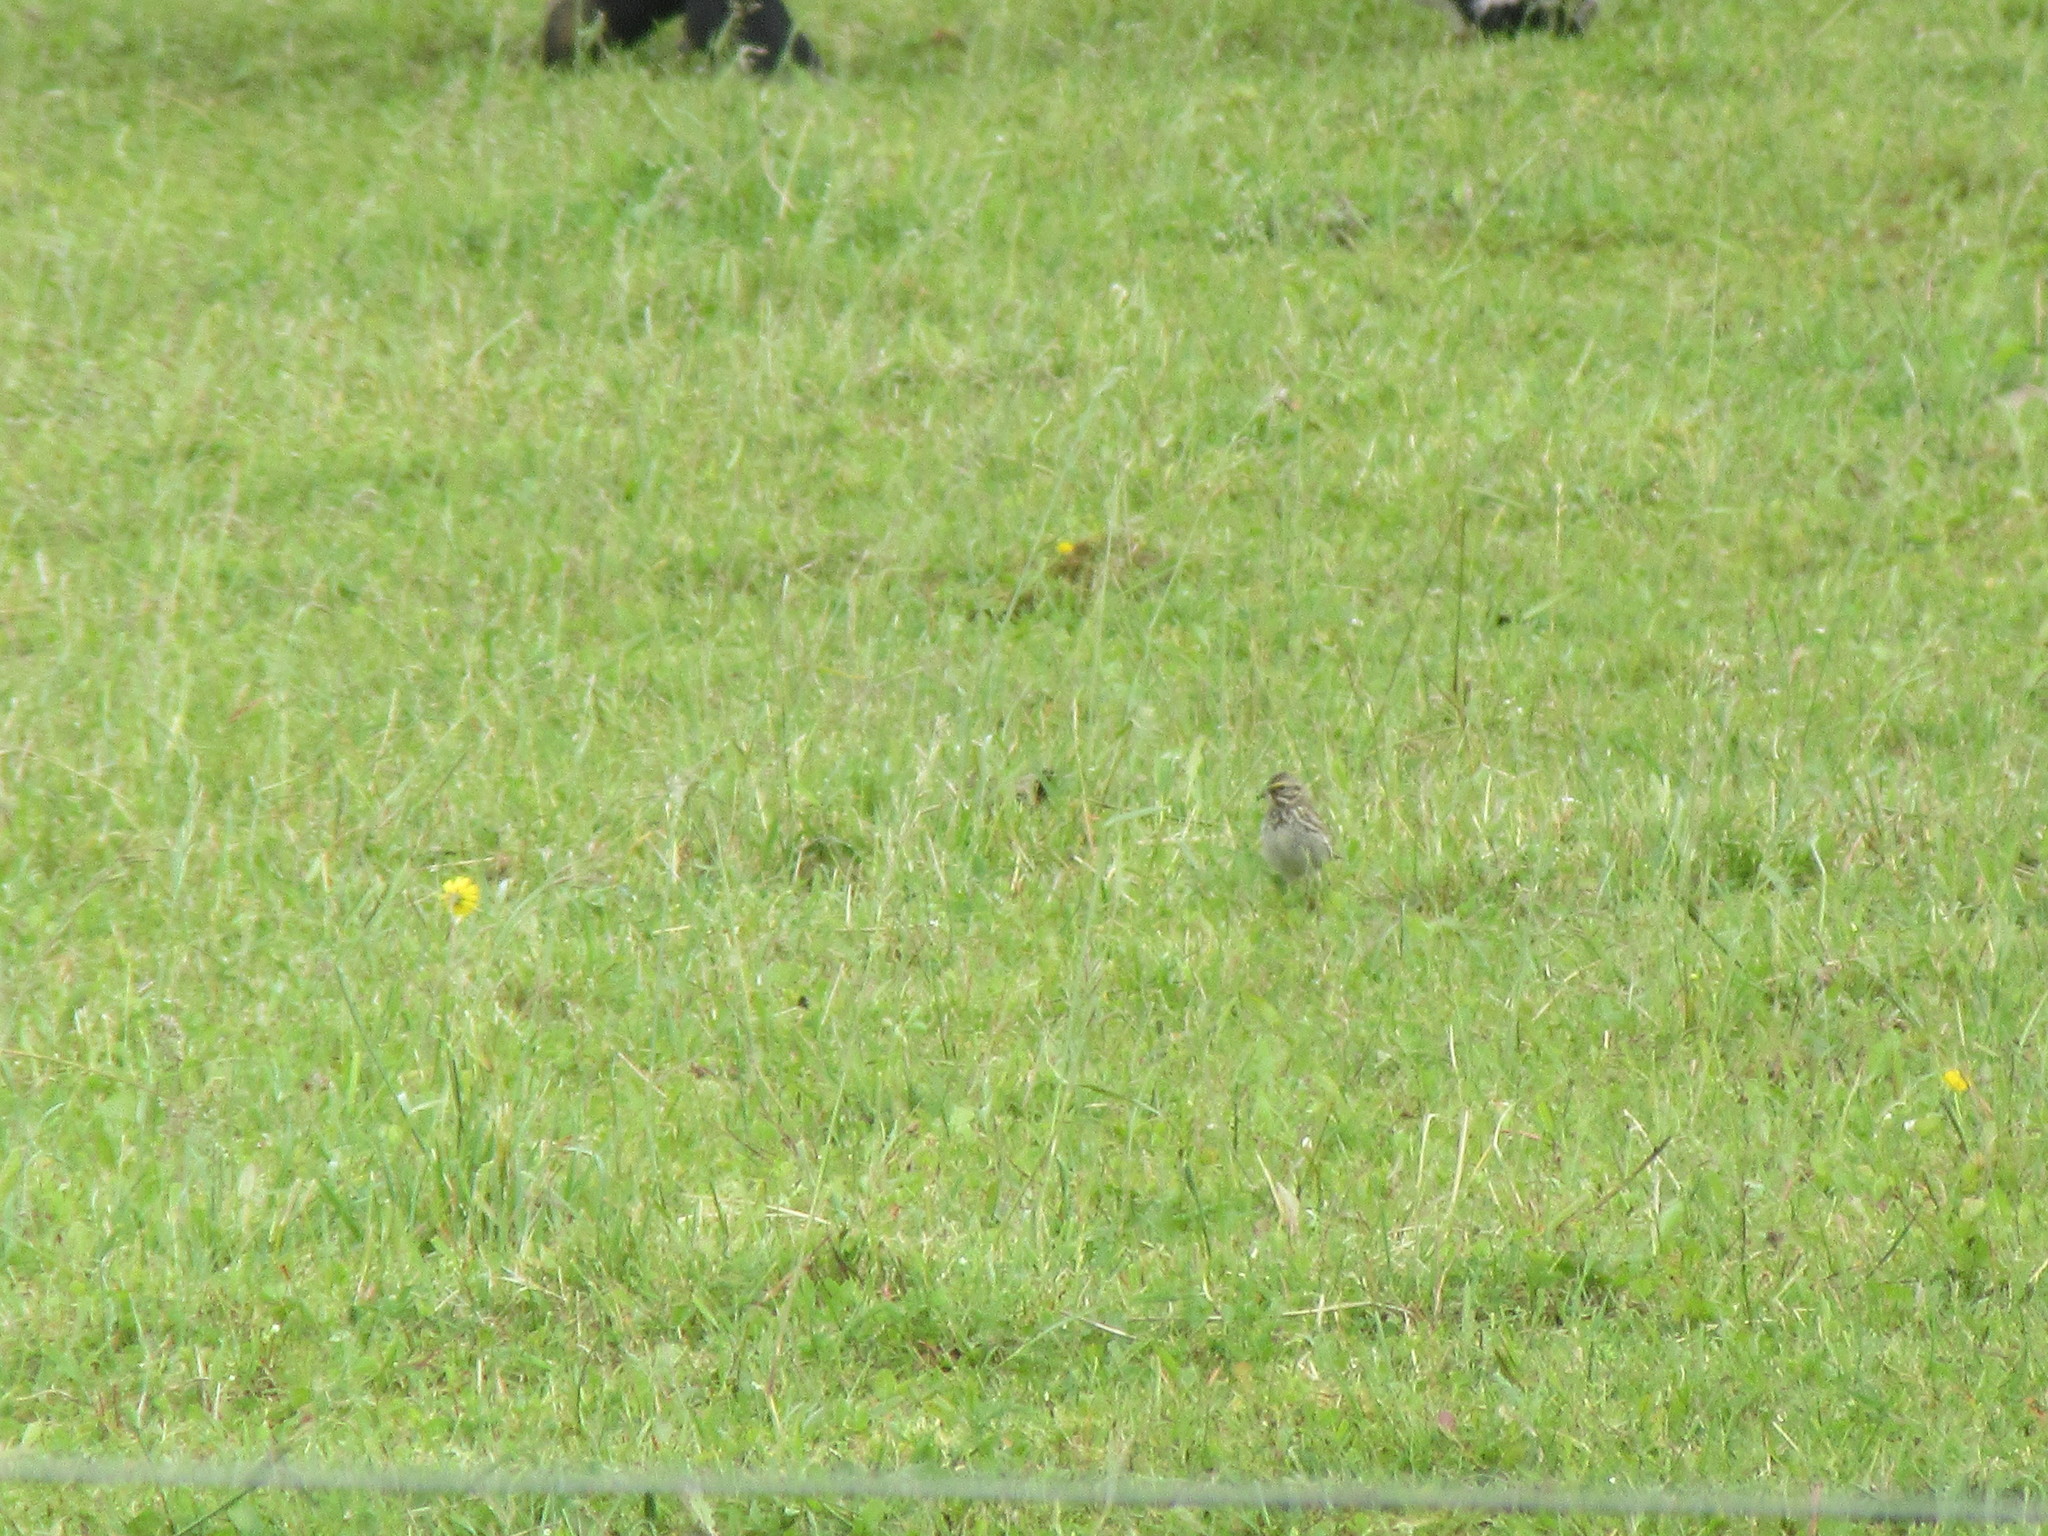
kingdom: Animalia
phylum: Chordata
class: Aves
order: Passeriformes
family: Passerellidae
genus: Passerculus
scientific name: Passerculus sandwichensis
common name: Savannah sparrow
